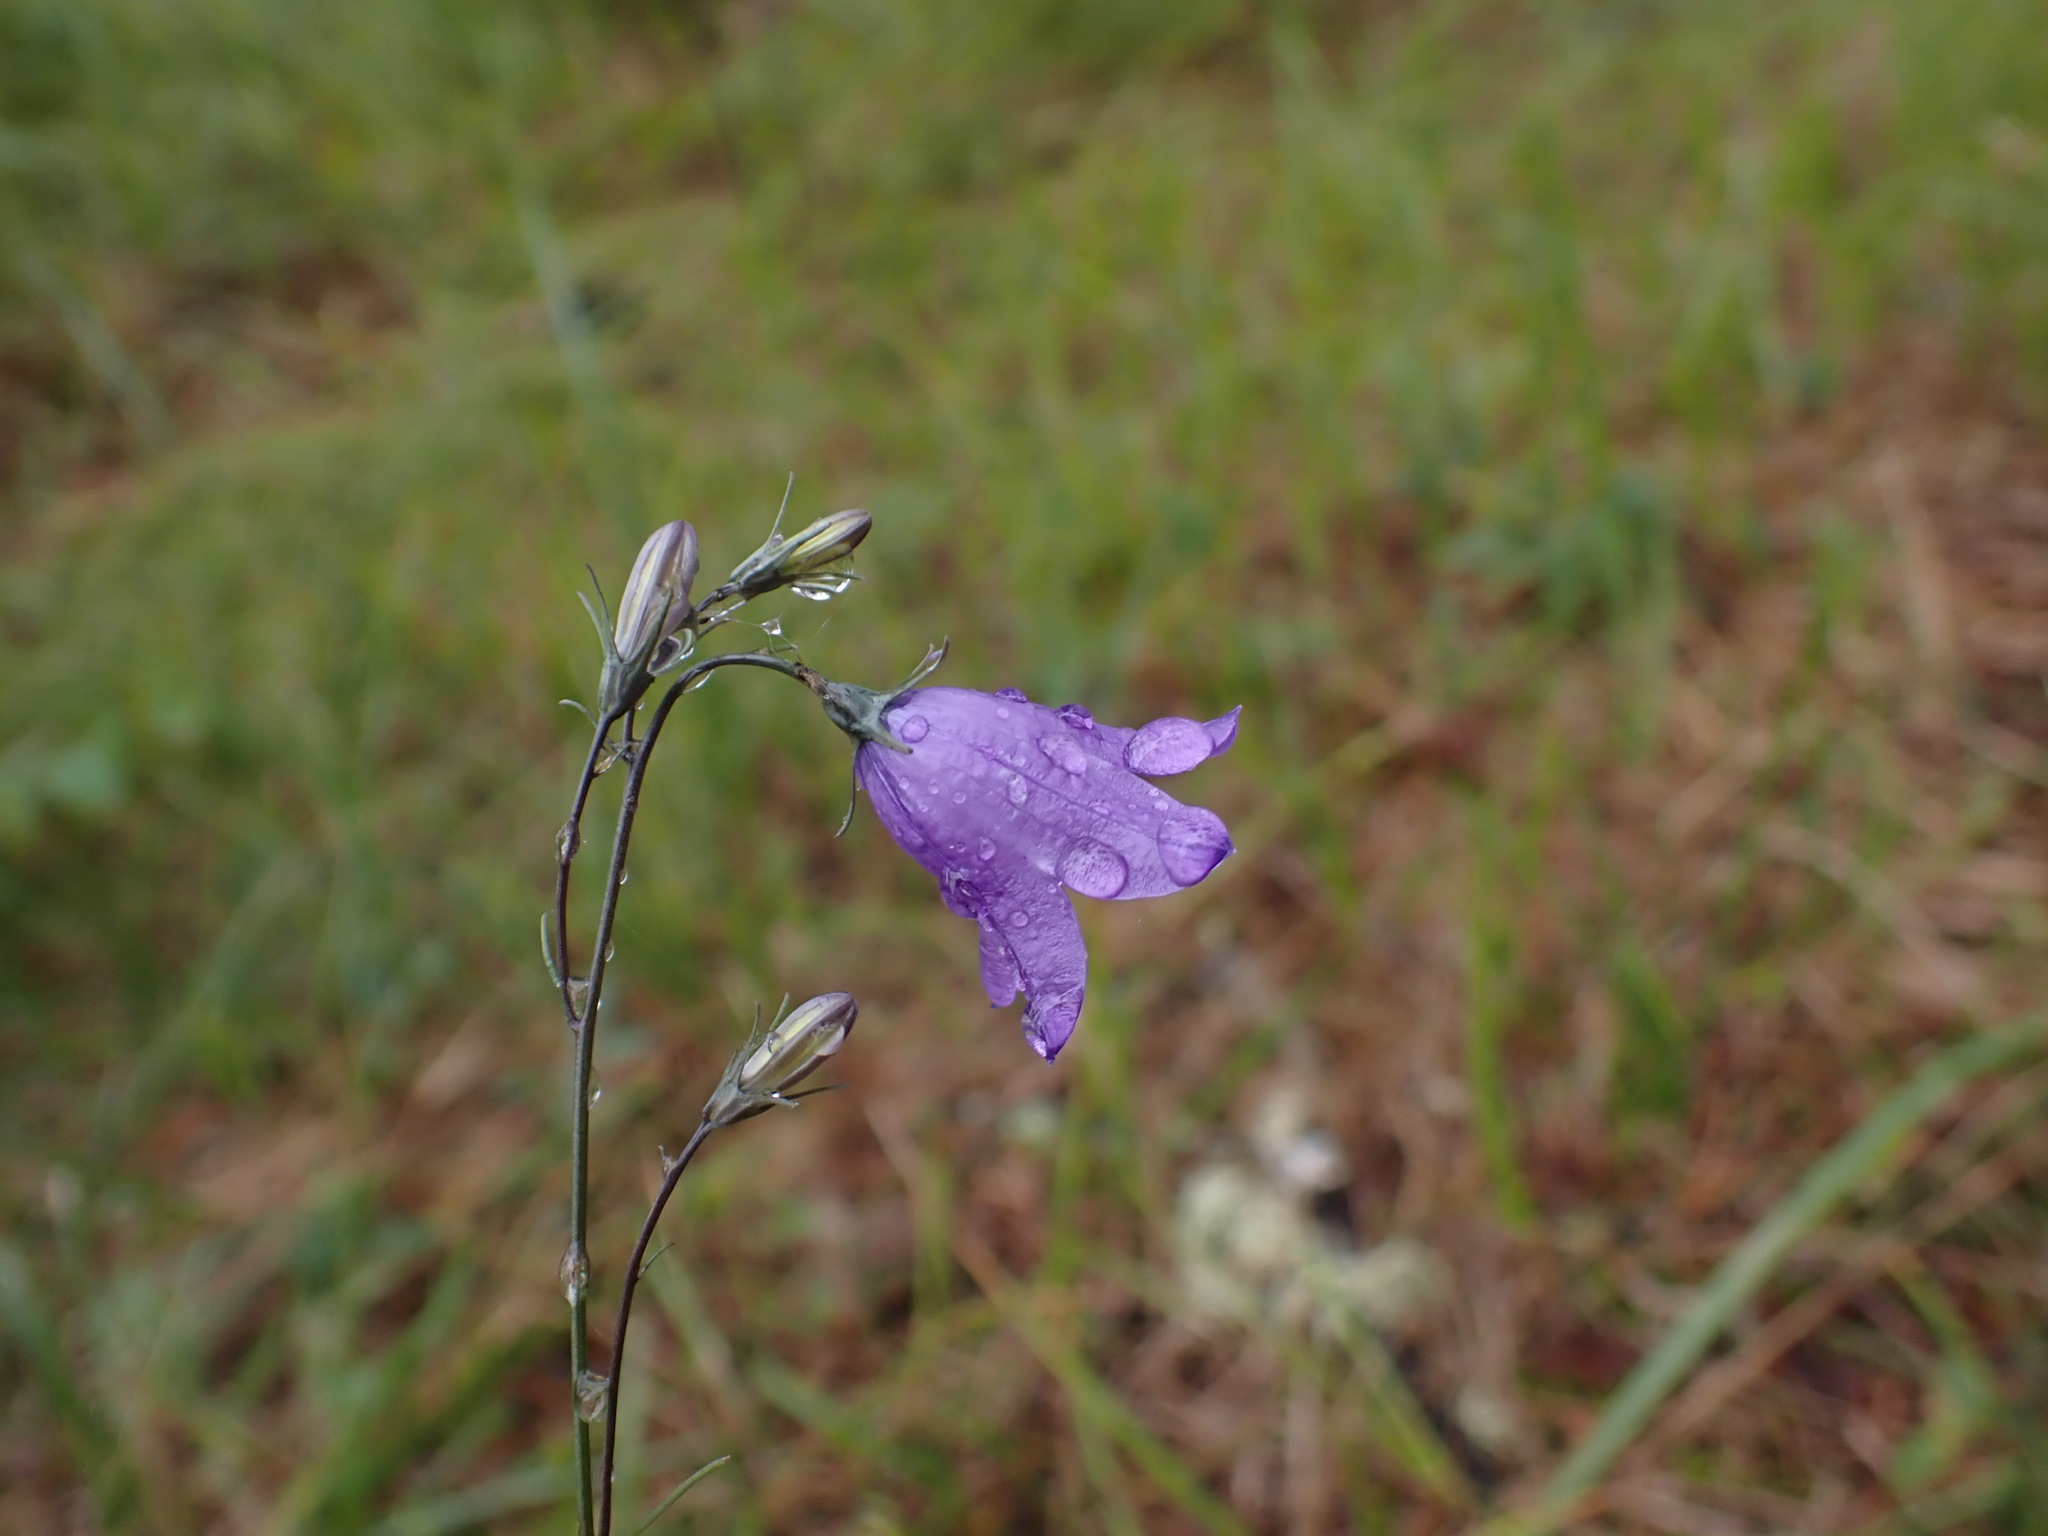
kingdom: Plantae
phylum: Tracheophyta
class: Magnoliopsida
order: Asterales
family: Campanulaceae
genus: Campanula
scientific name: Campanula alaskana
